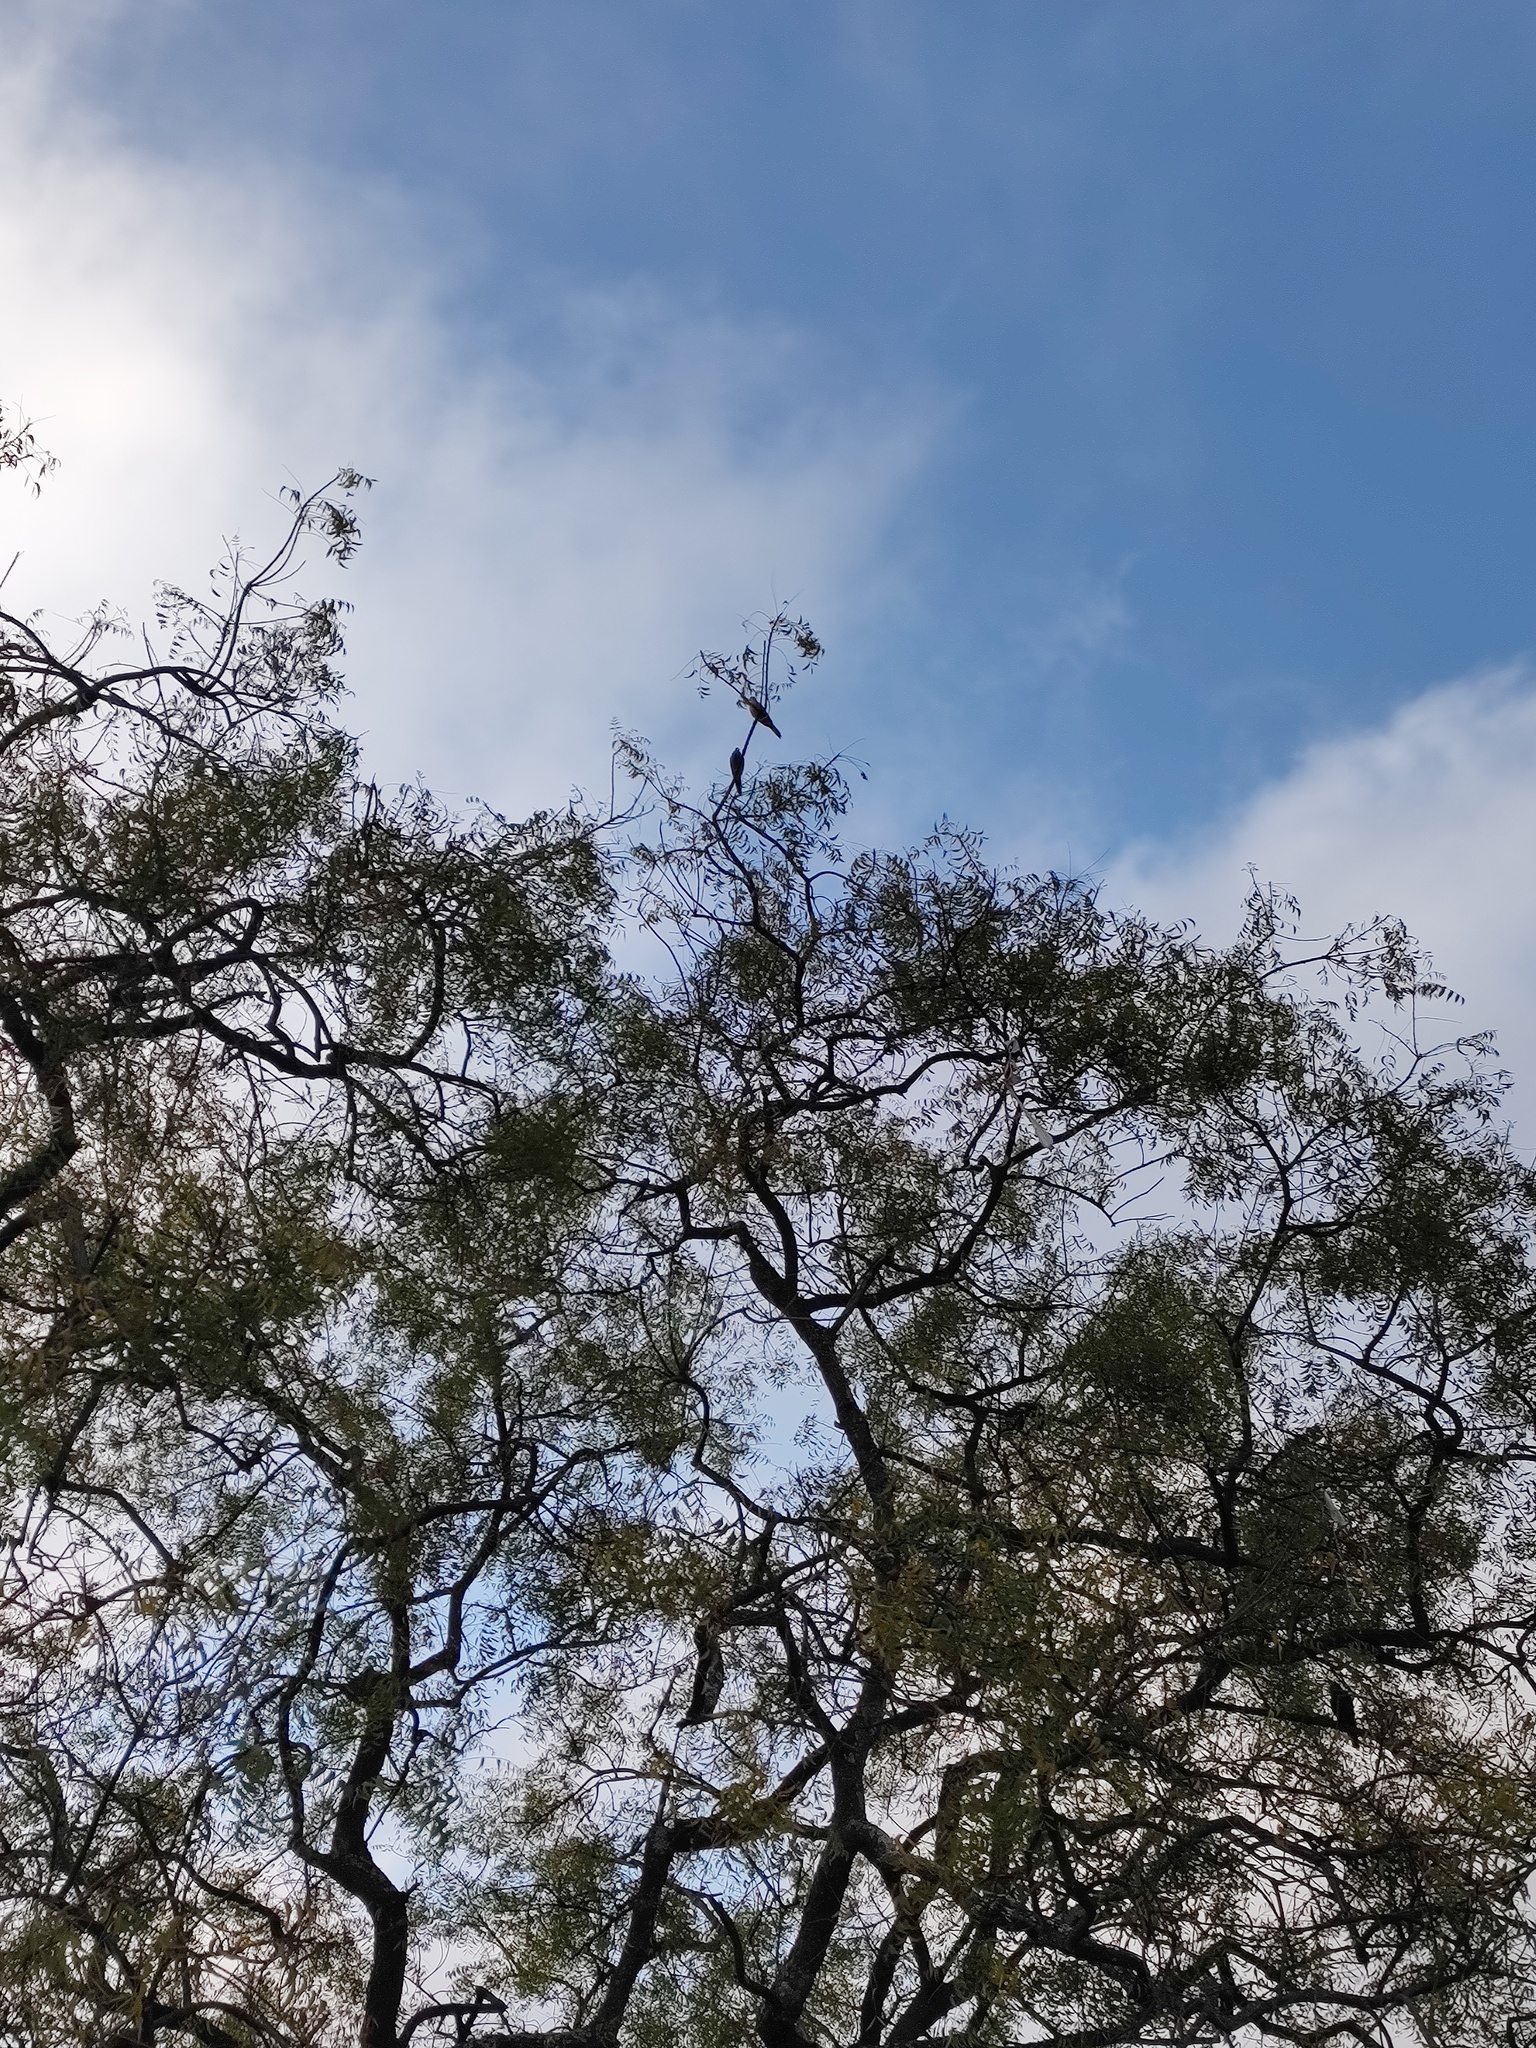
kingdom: Animalia
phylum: Chordata
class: Aves
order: Columbiformes
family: Columbidae
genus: Spilopelia
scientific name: Spilopelia chinensis
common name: Spotted dove
